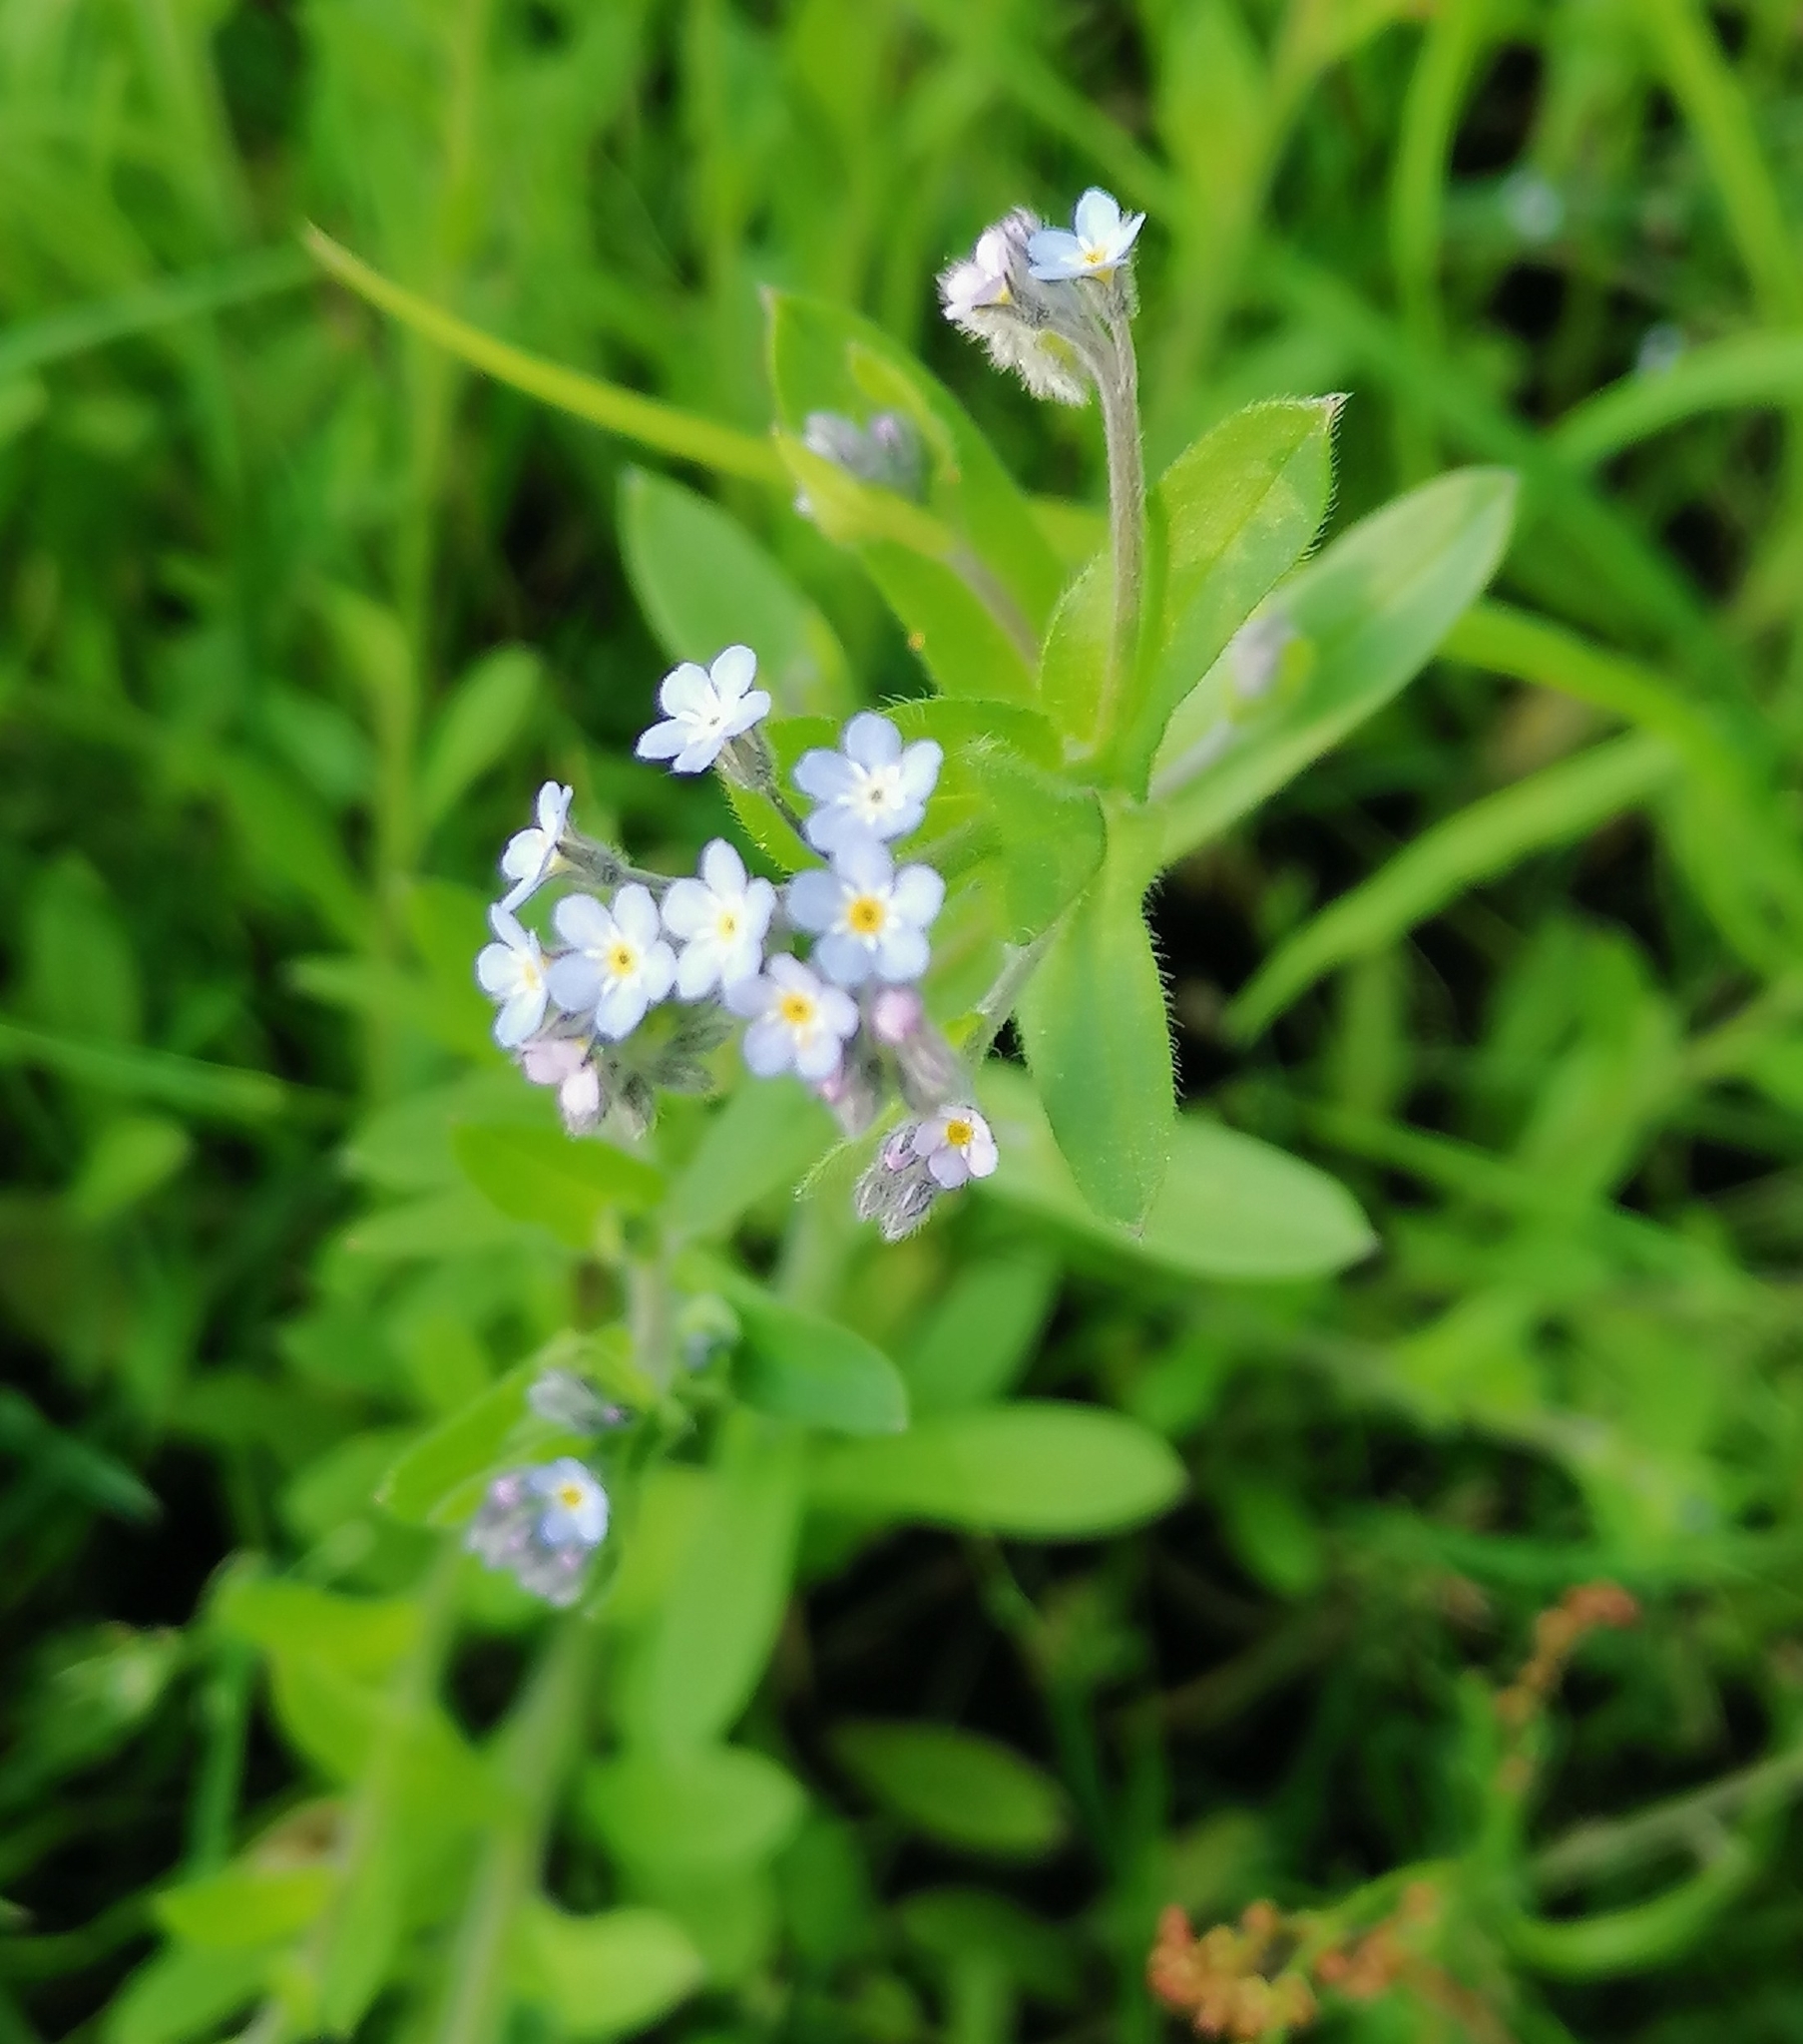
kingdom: Plantae
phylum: Tracheophyta
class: Magnoliopsida
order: Boraginales
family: Boraginaceae
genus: Myosotis
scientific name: Myosotis arvensis
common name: Field forget-me-not
